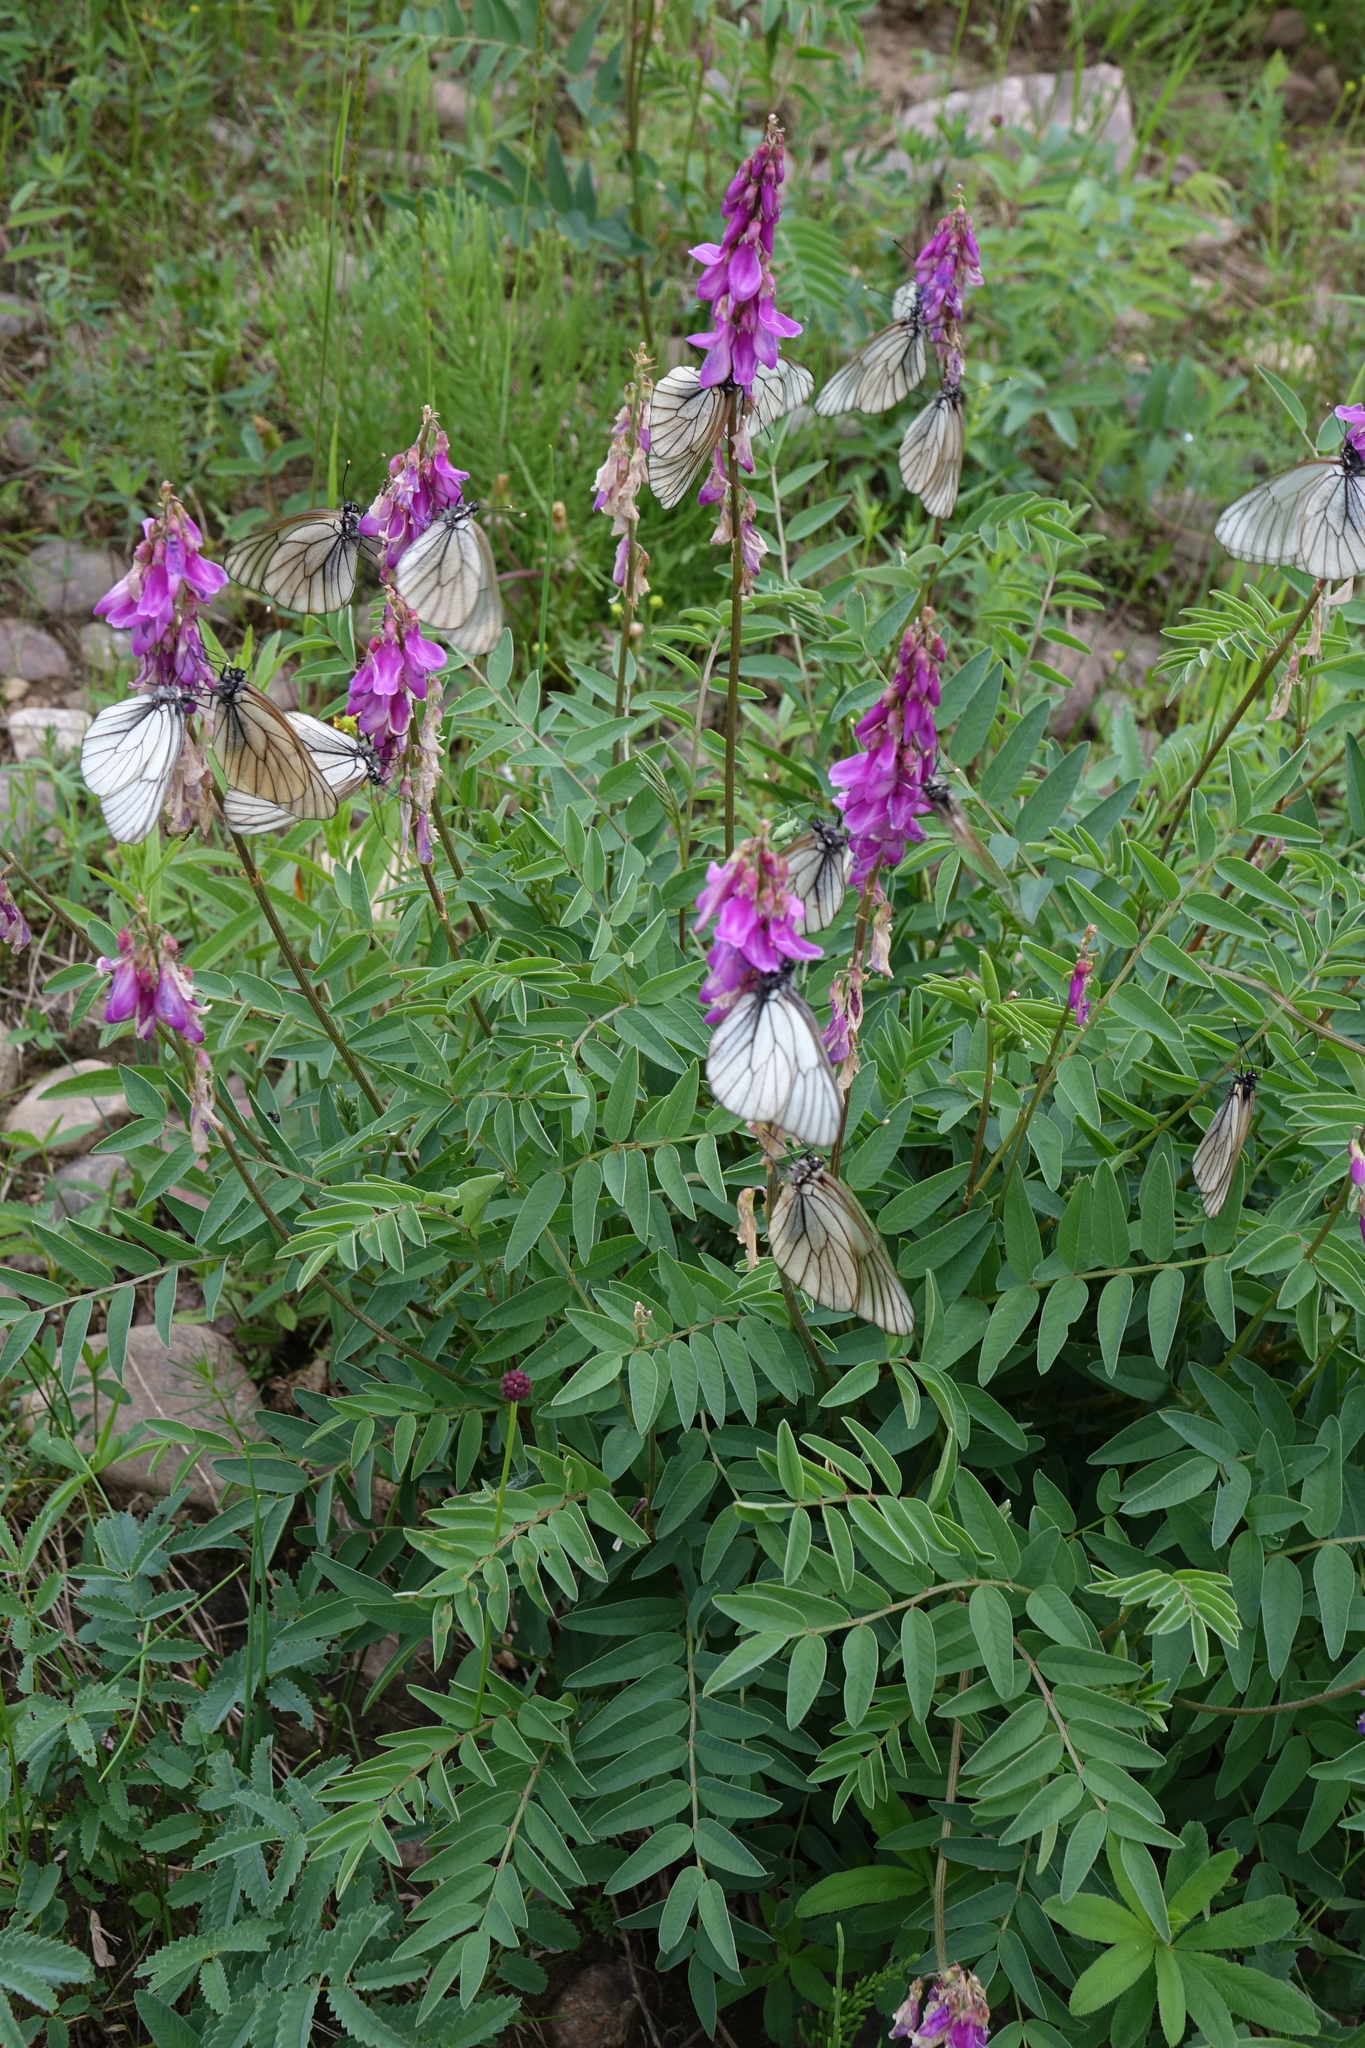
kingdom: Plantae
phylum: Tracheophyta
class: Magnoliopsida
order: Fabales
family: Fabaceae
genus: Hedysarum
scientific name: Hedysarum branthii
